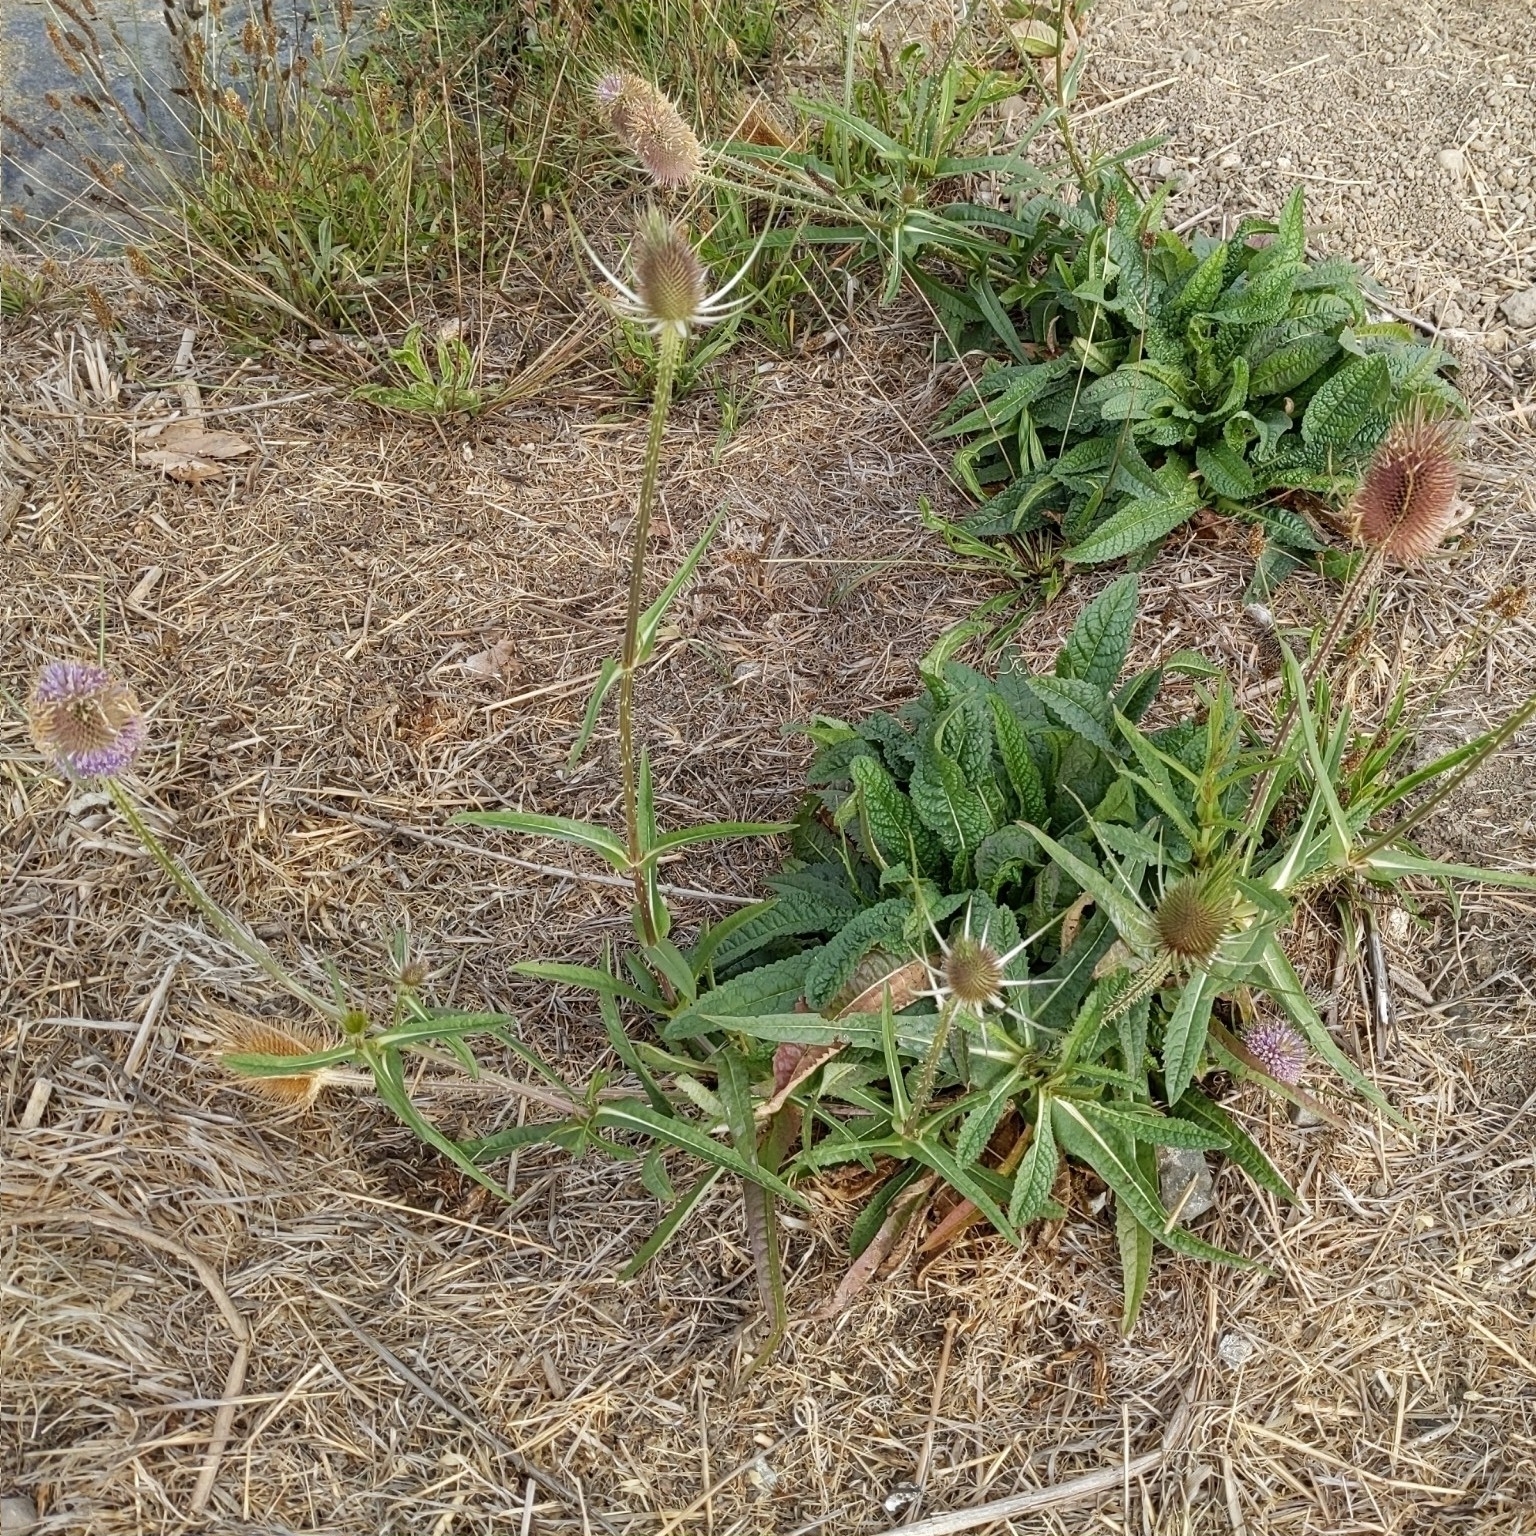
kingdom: Plantae
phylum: Tracheophyta
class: Magnoliopsida
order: Dipsacales
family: Caprifoliaceae
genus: Dipsacus
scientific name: Dipsacus fullonum
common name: Teasel
